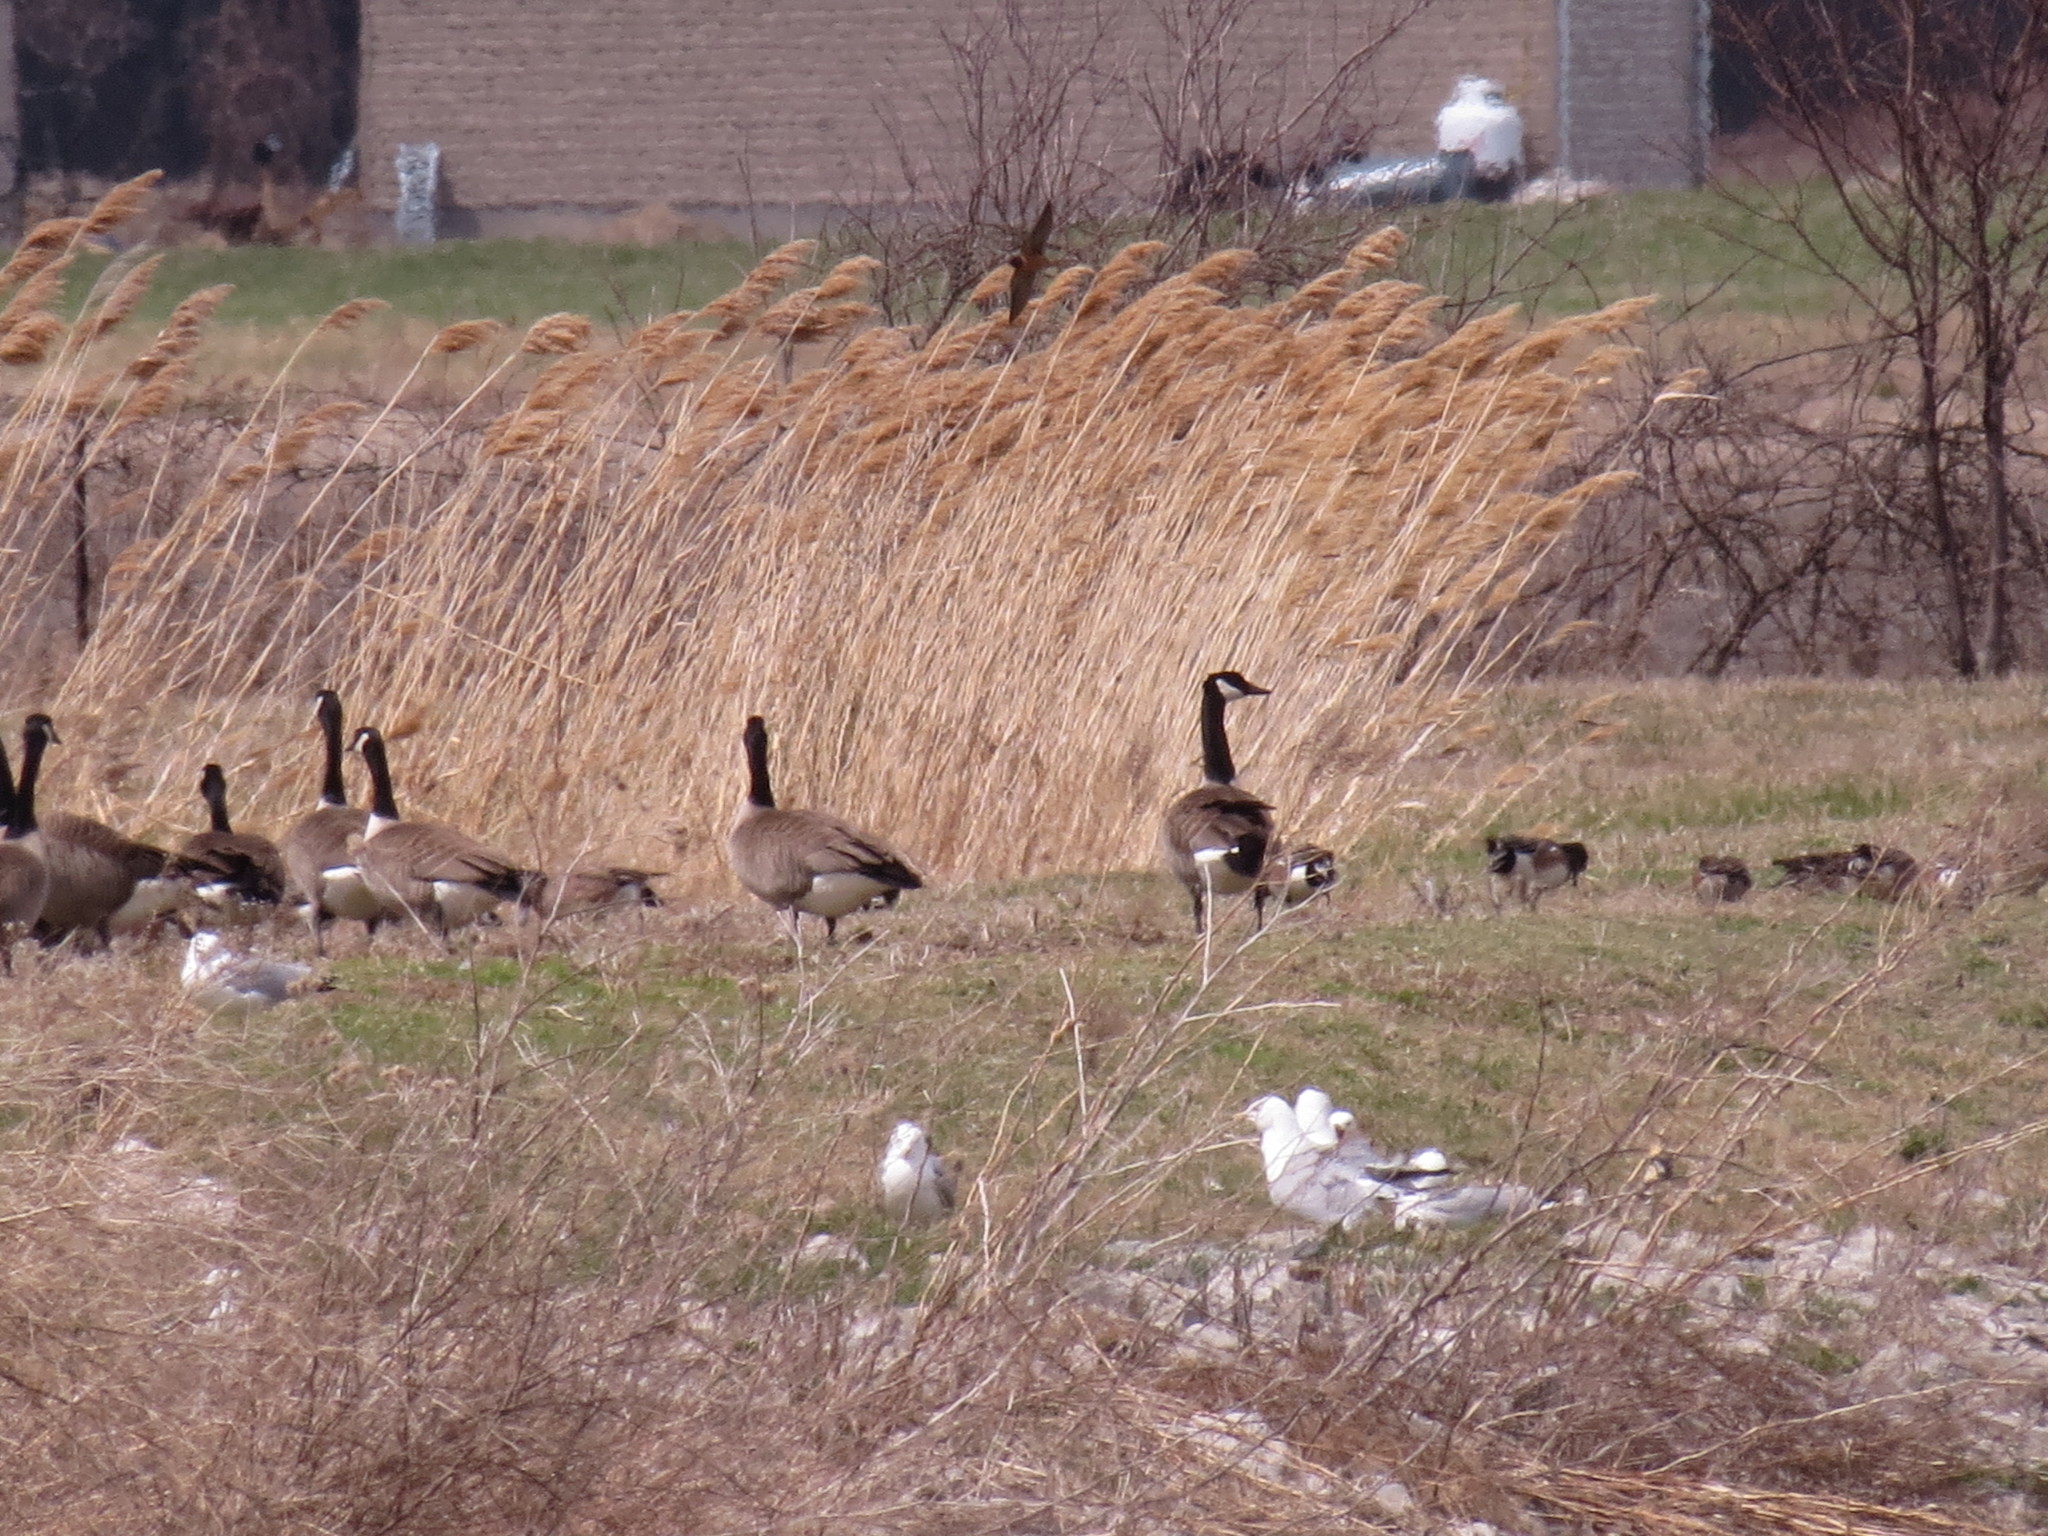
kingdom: Animalia
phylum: Chordata
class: Aves
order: Charadriiformes
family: Laridae
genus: Larus
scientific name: Larus delawarensis
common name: Ring-billed gull
